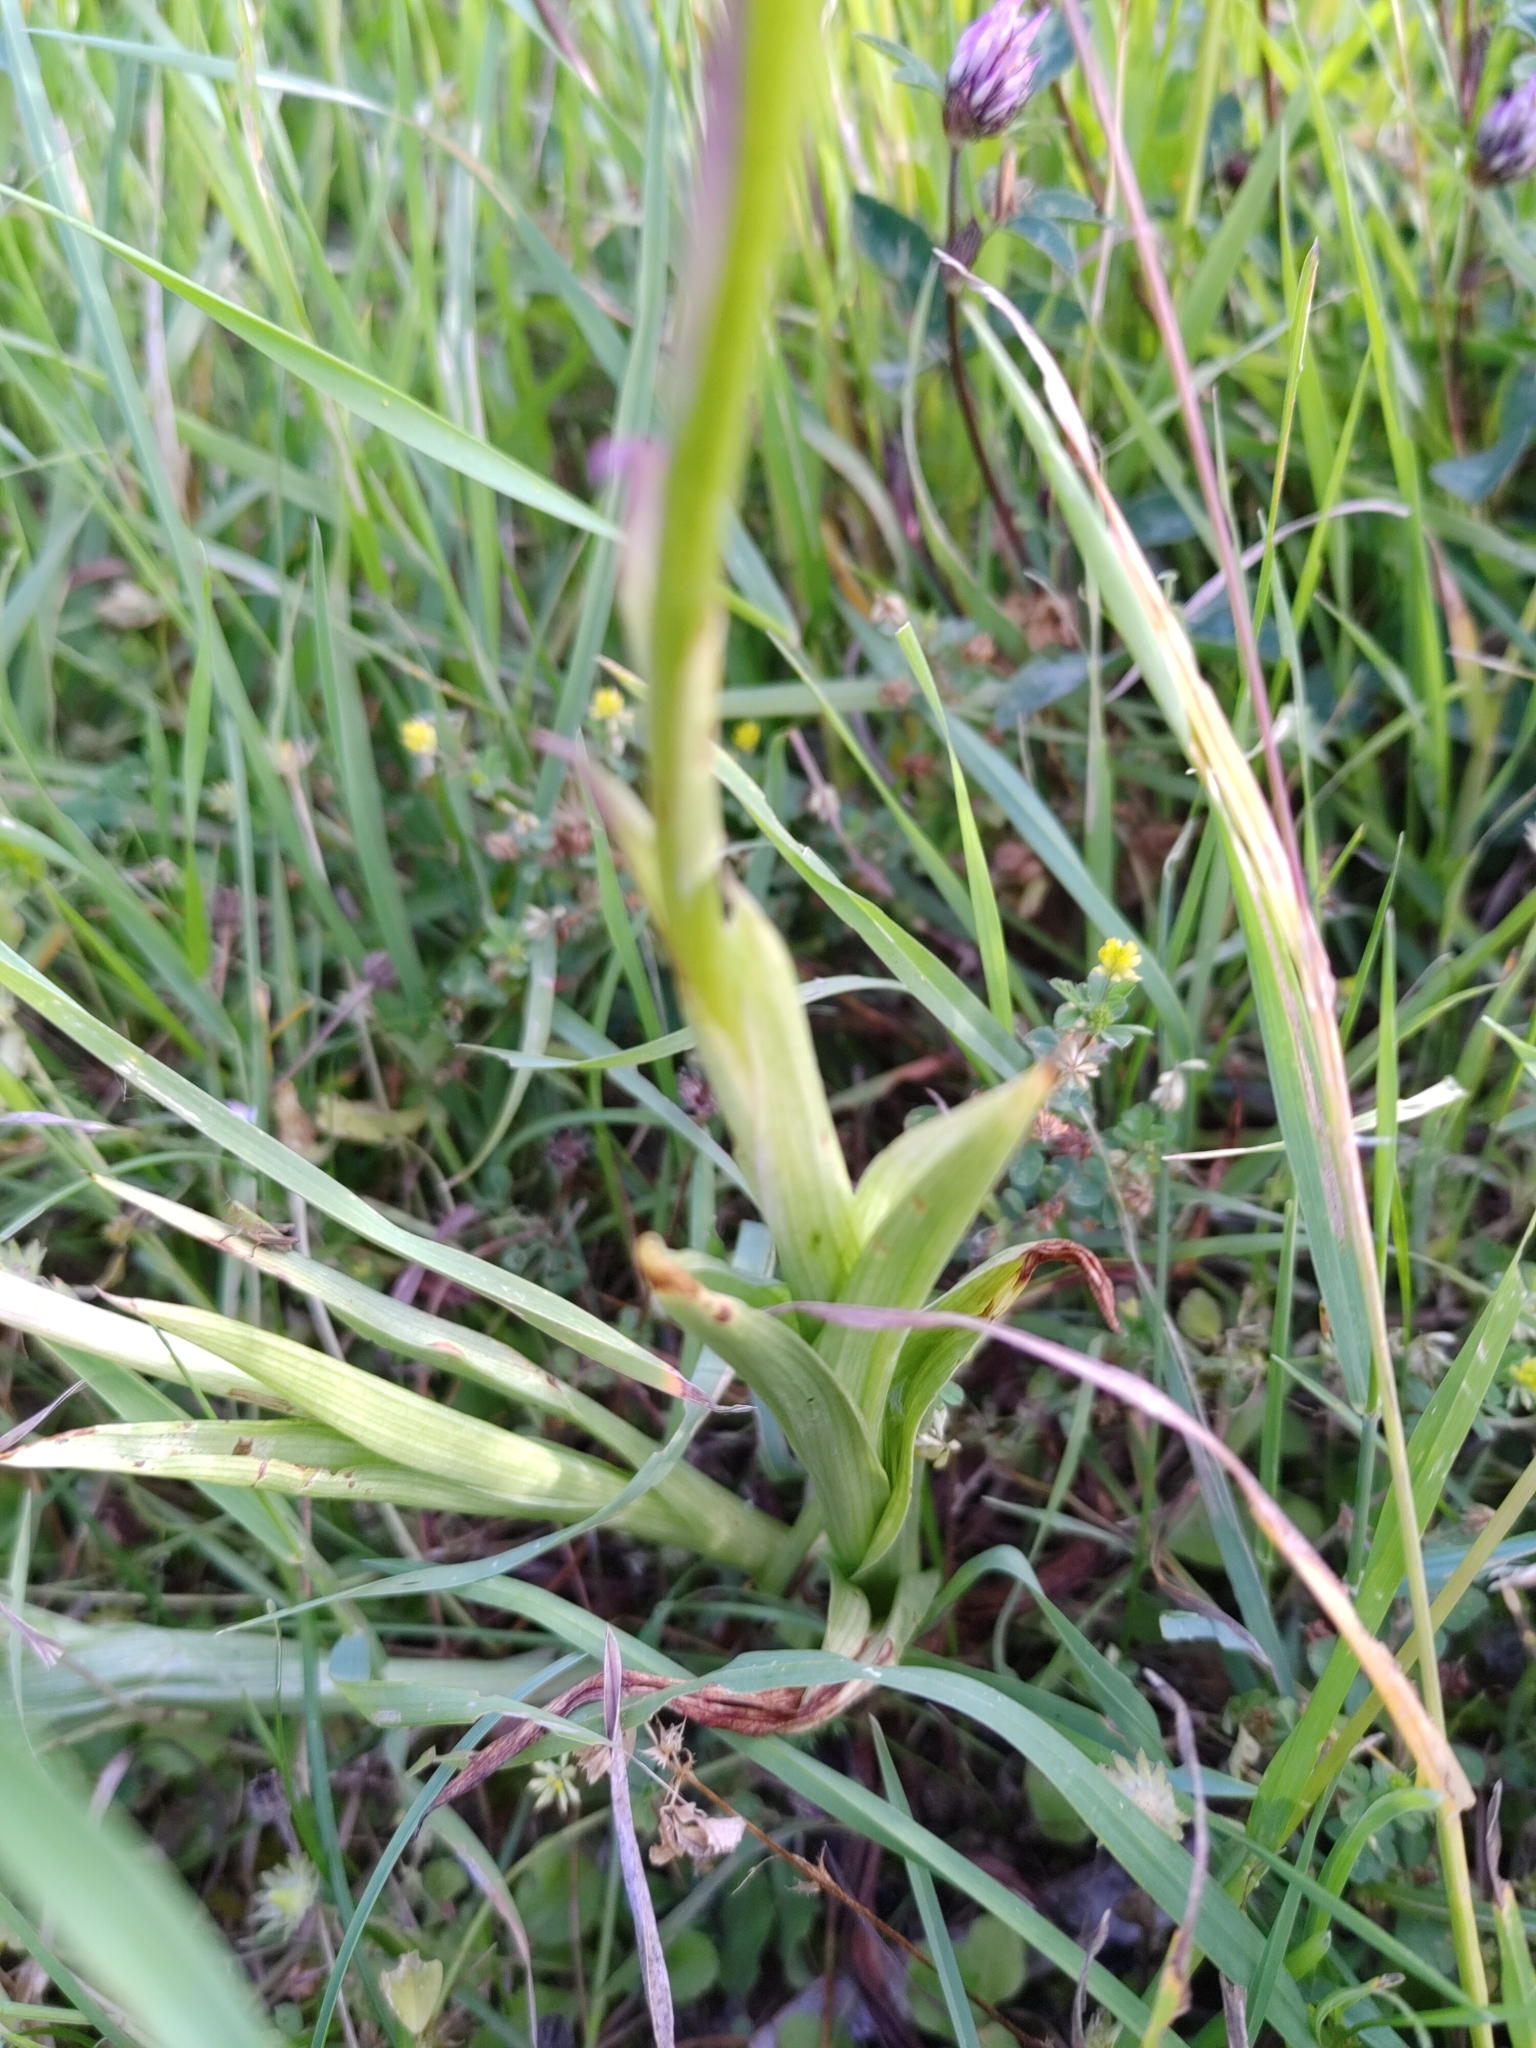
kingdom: Plantae
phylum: Tracheophyta
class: Liliopsida
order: Asparagales
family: Orchidaceae
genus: Anacamptis
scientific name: Anacamptis pyramidalis
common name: Pyramidal orchid
